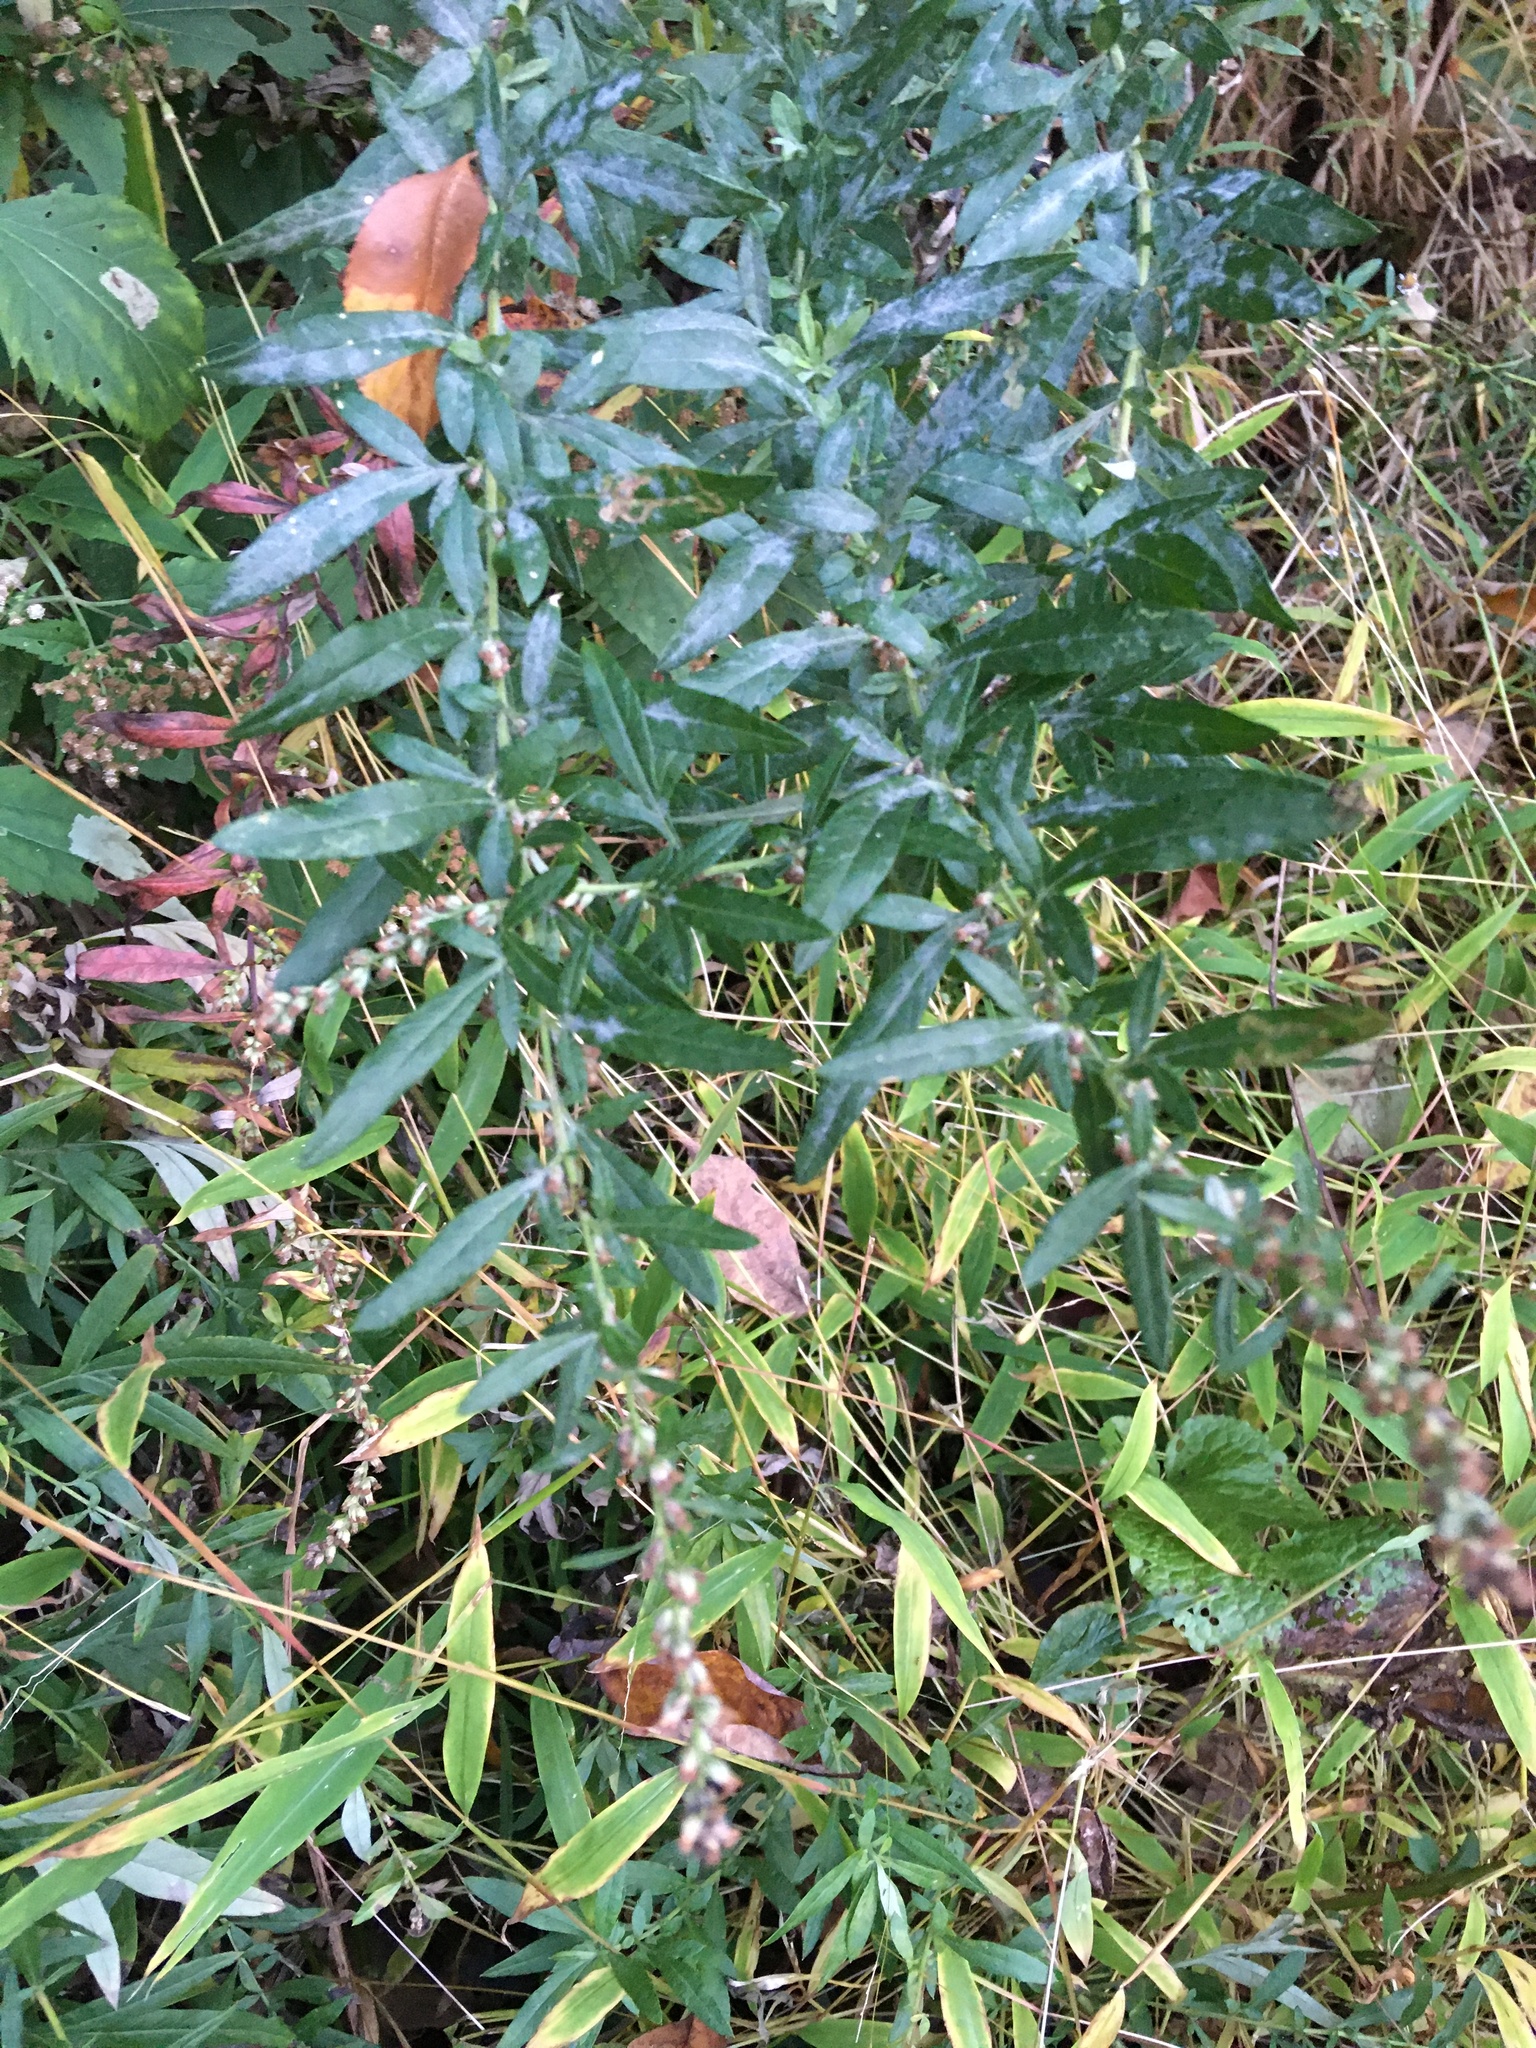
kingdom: Plantae
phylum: Tracheophyta
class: Magnoliopsida
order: Asterales
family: Asteraceae
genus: Artemisia
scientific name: Artemisia vulgaris
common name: Mugwort
